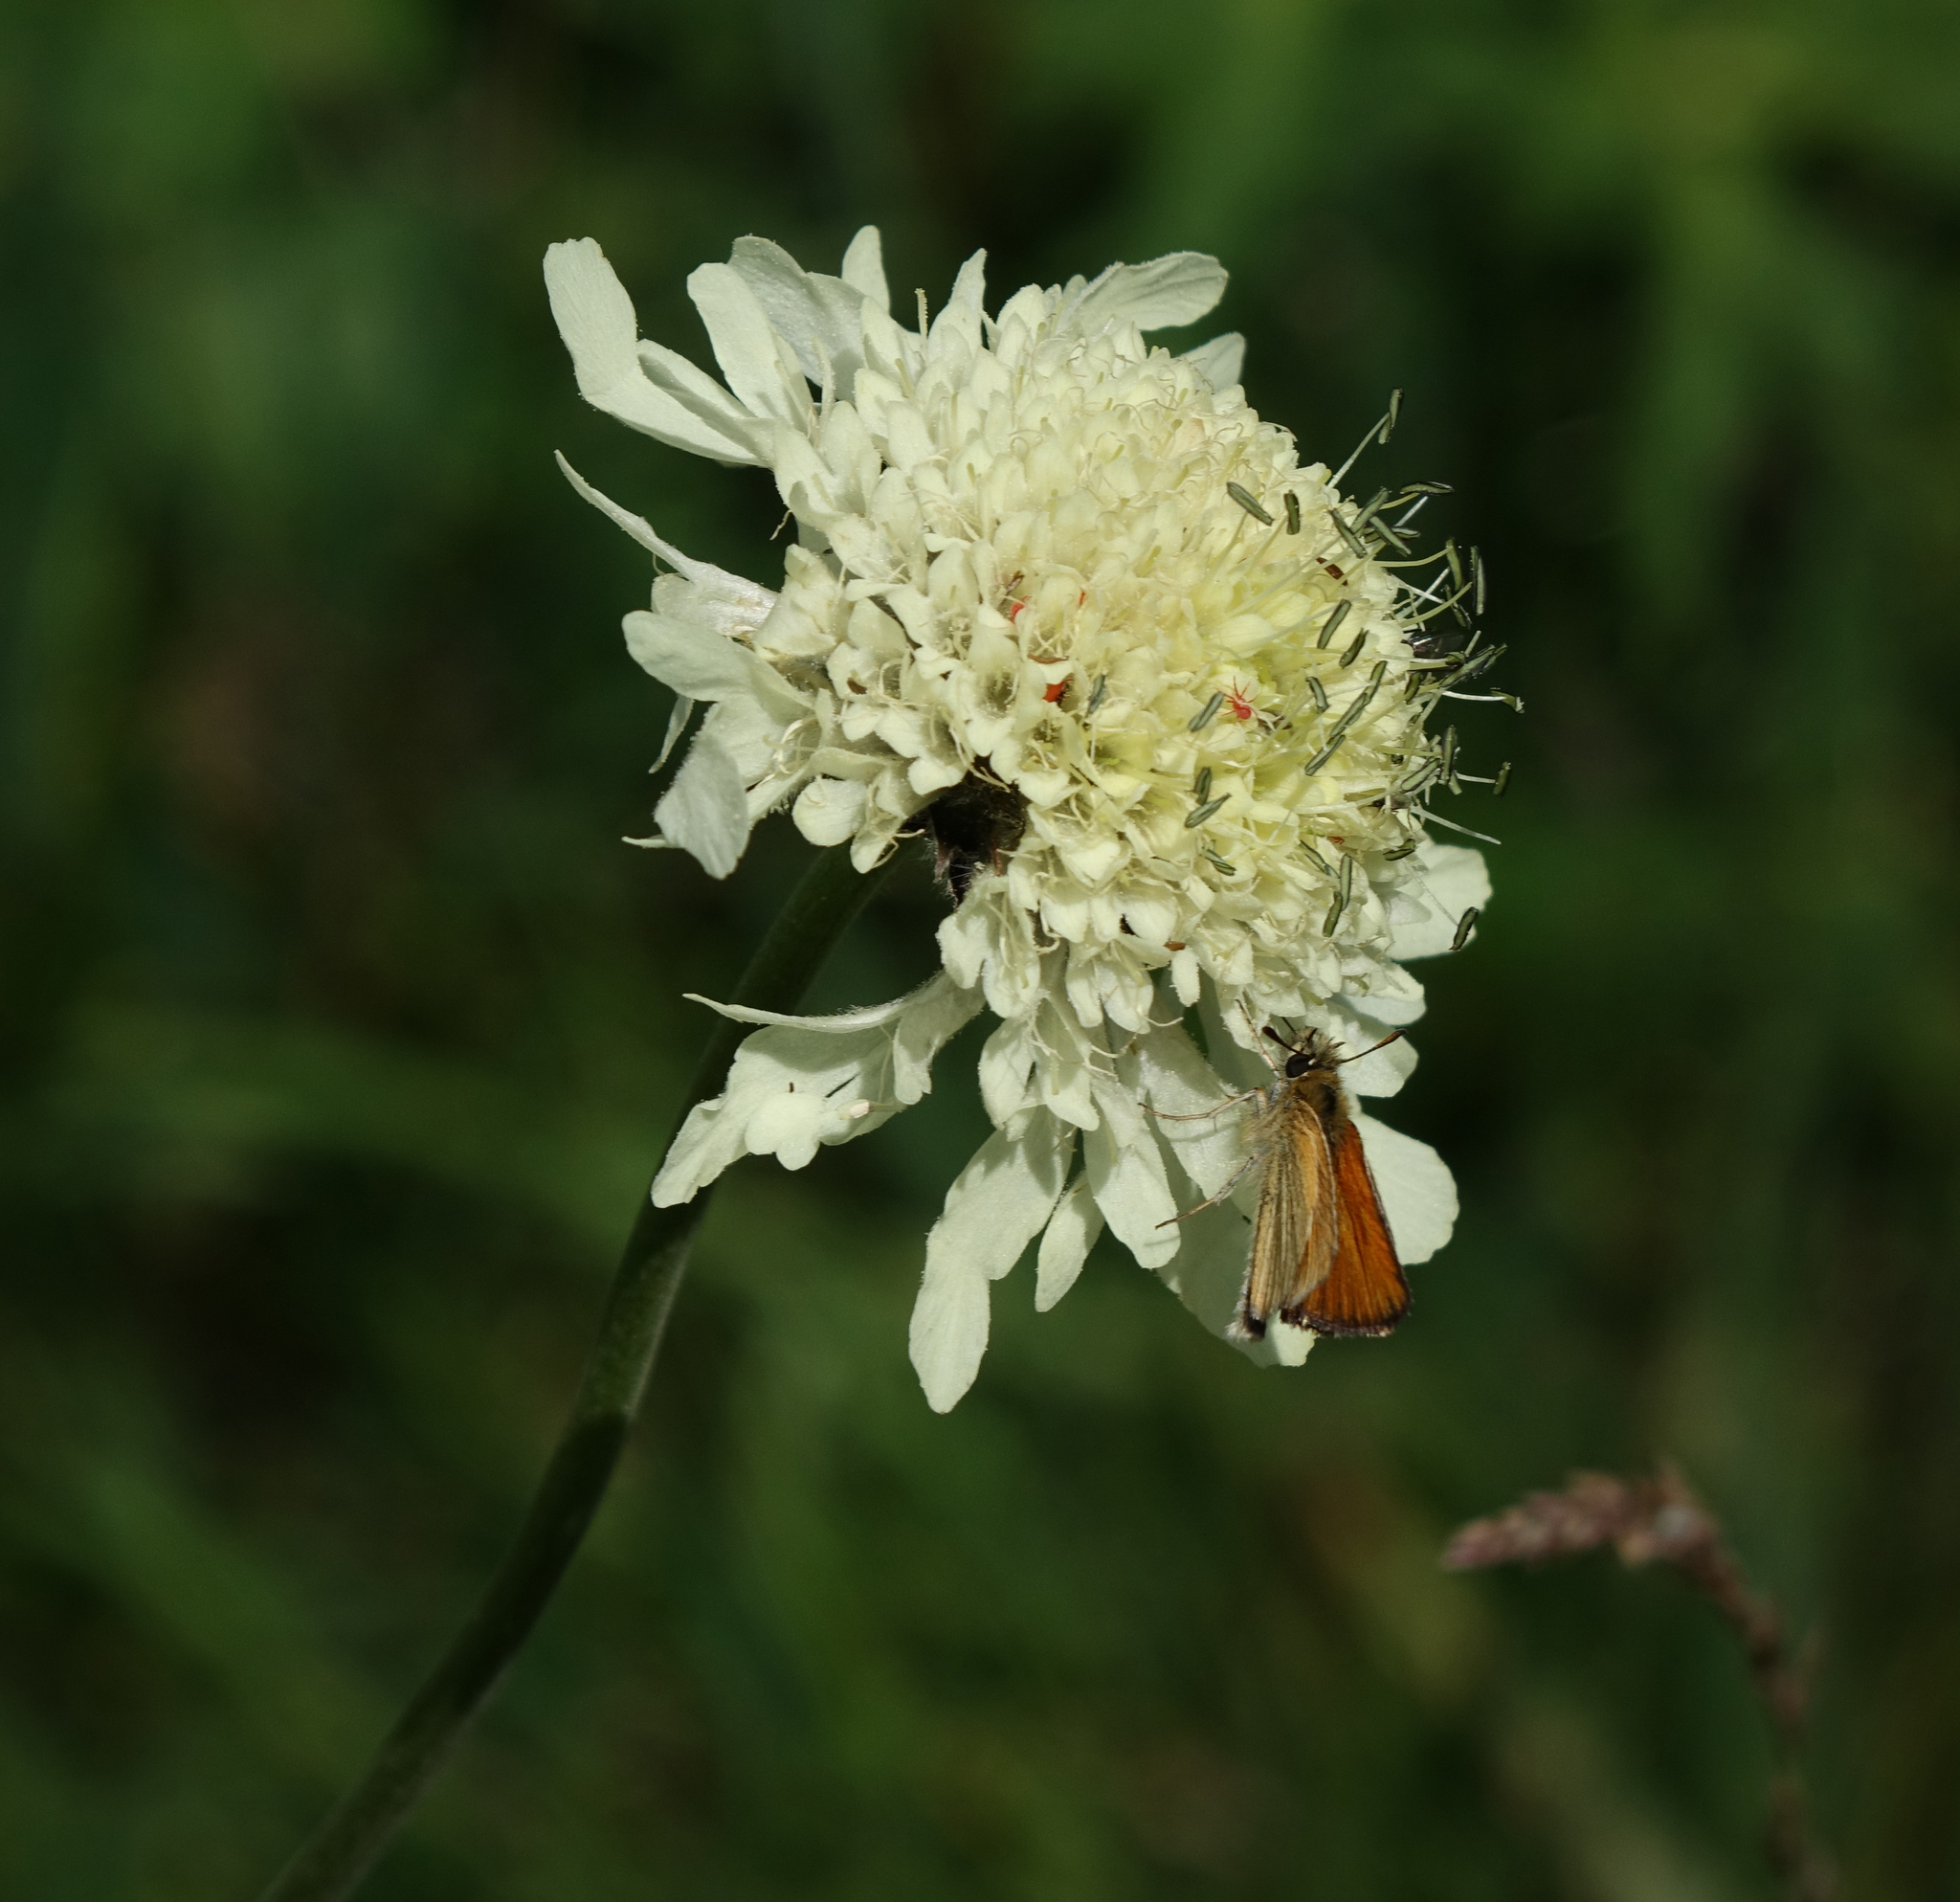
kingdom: Animalia
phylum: Arthropoda
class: Insecta
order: Lepidoptera
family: Hesperiidae
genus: Thymelicus
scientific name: Thymelicus lineola
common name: Essex skipper
